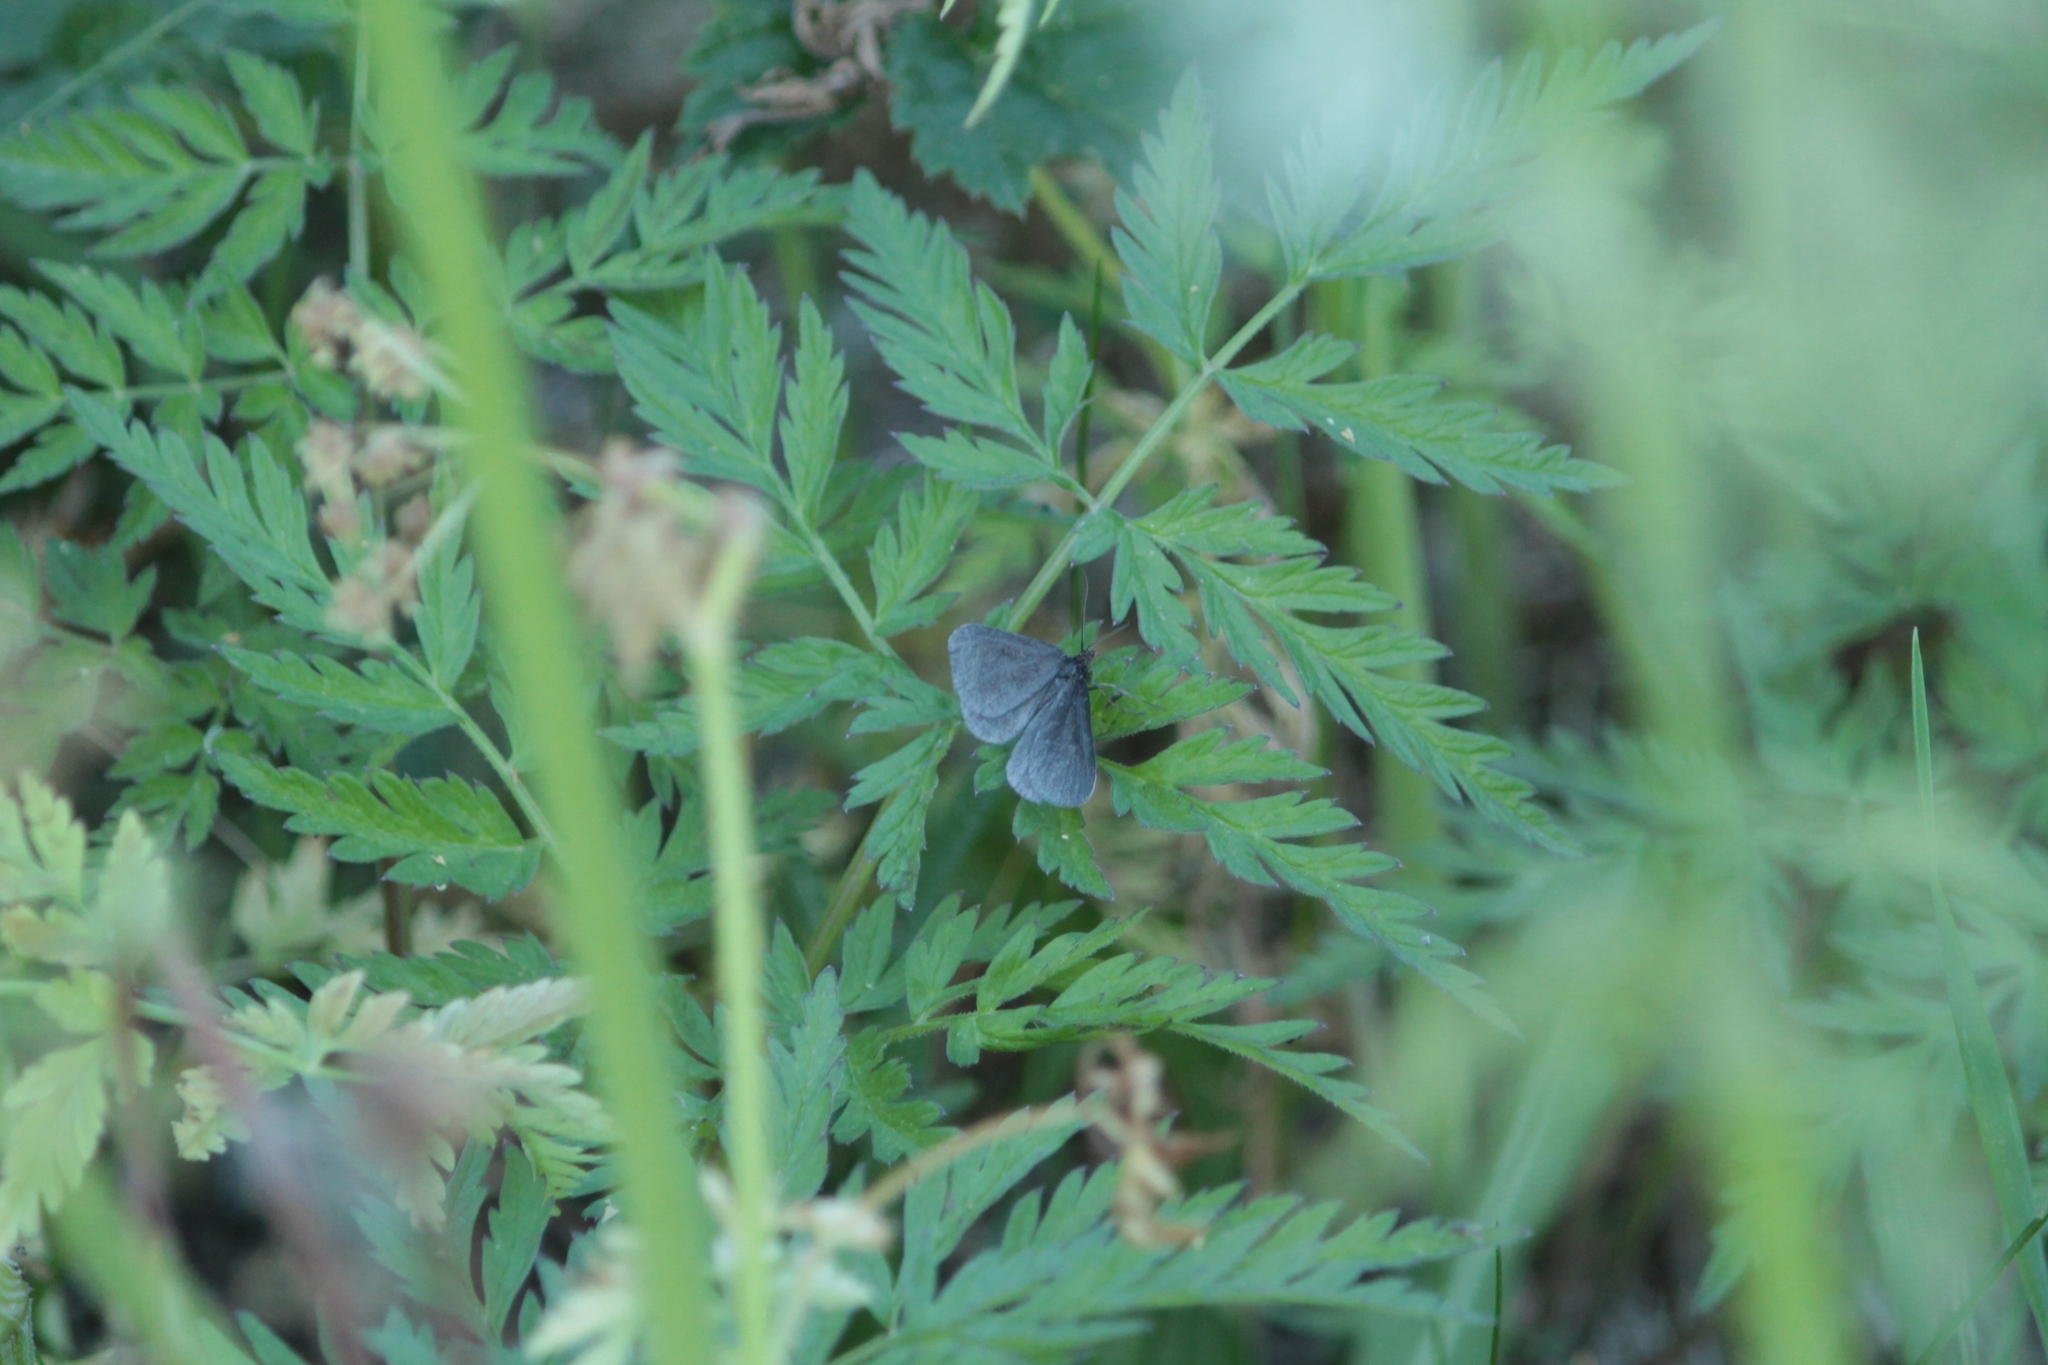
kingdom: Animalia
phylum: Arthropoda
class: Insecta
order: Lepidoptera
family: Geometridae
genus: Odezia
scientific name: Odezia atrata
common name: Chimney sweeper
